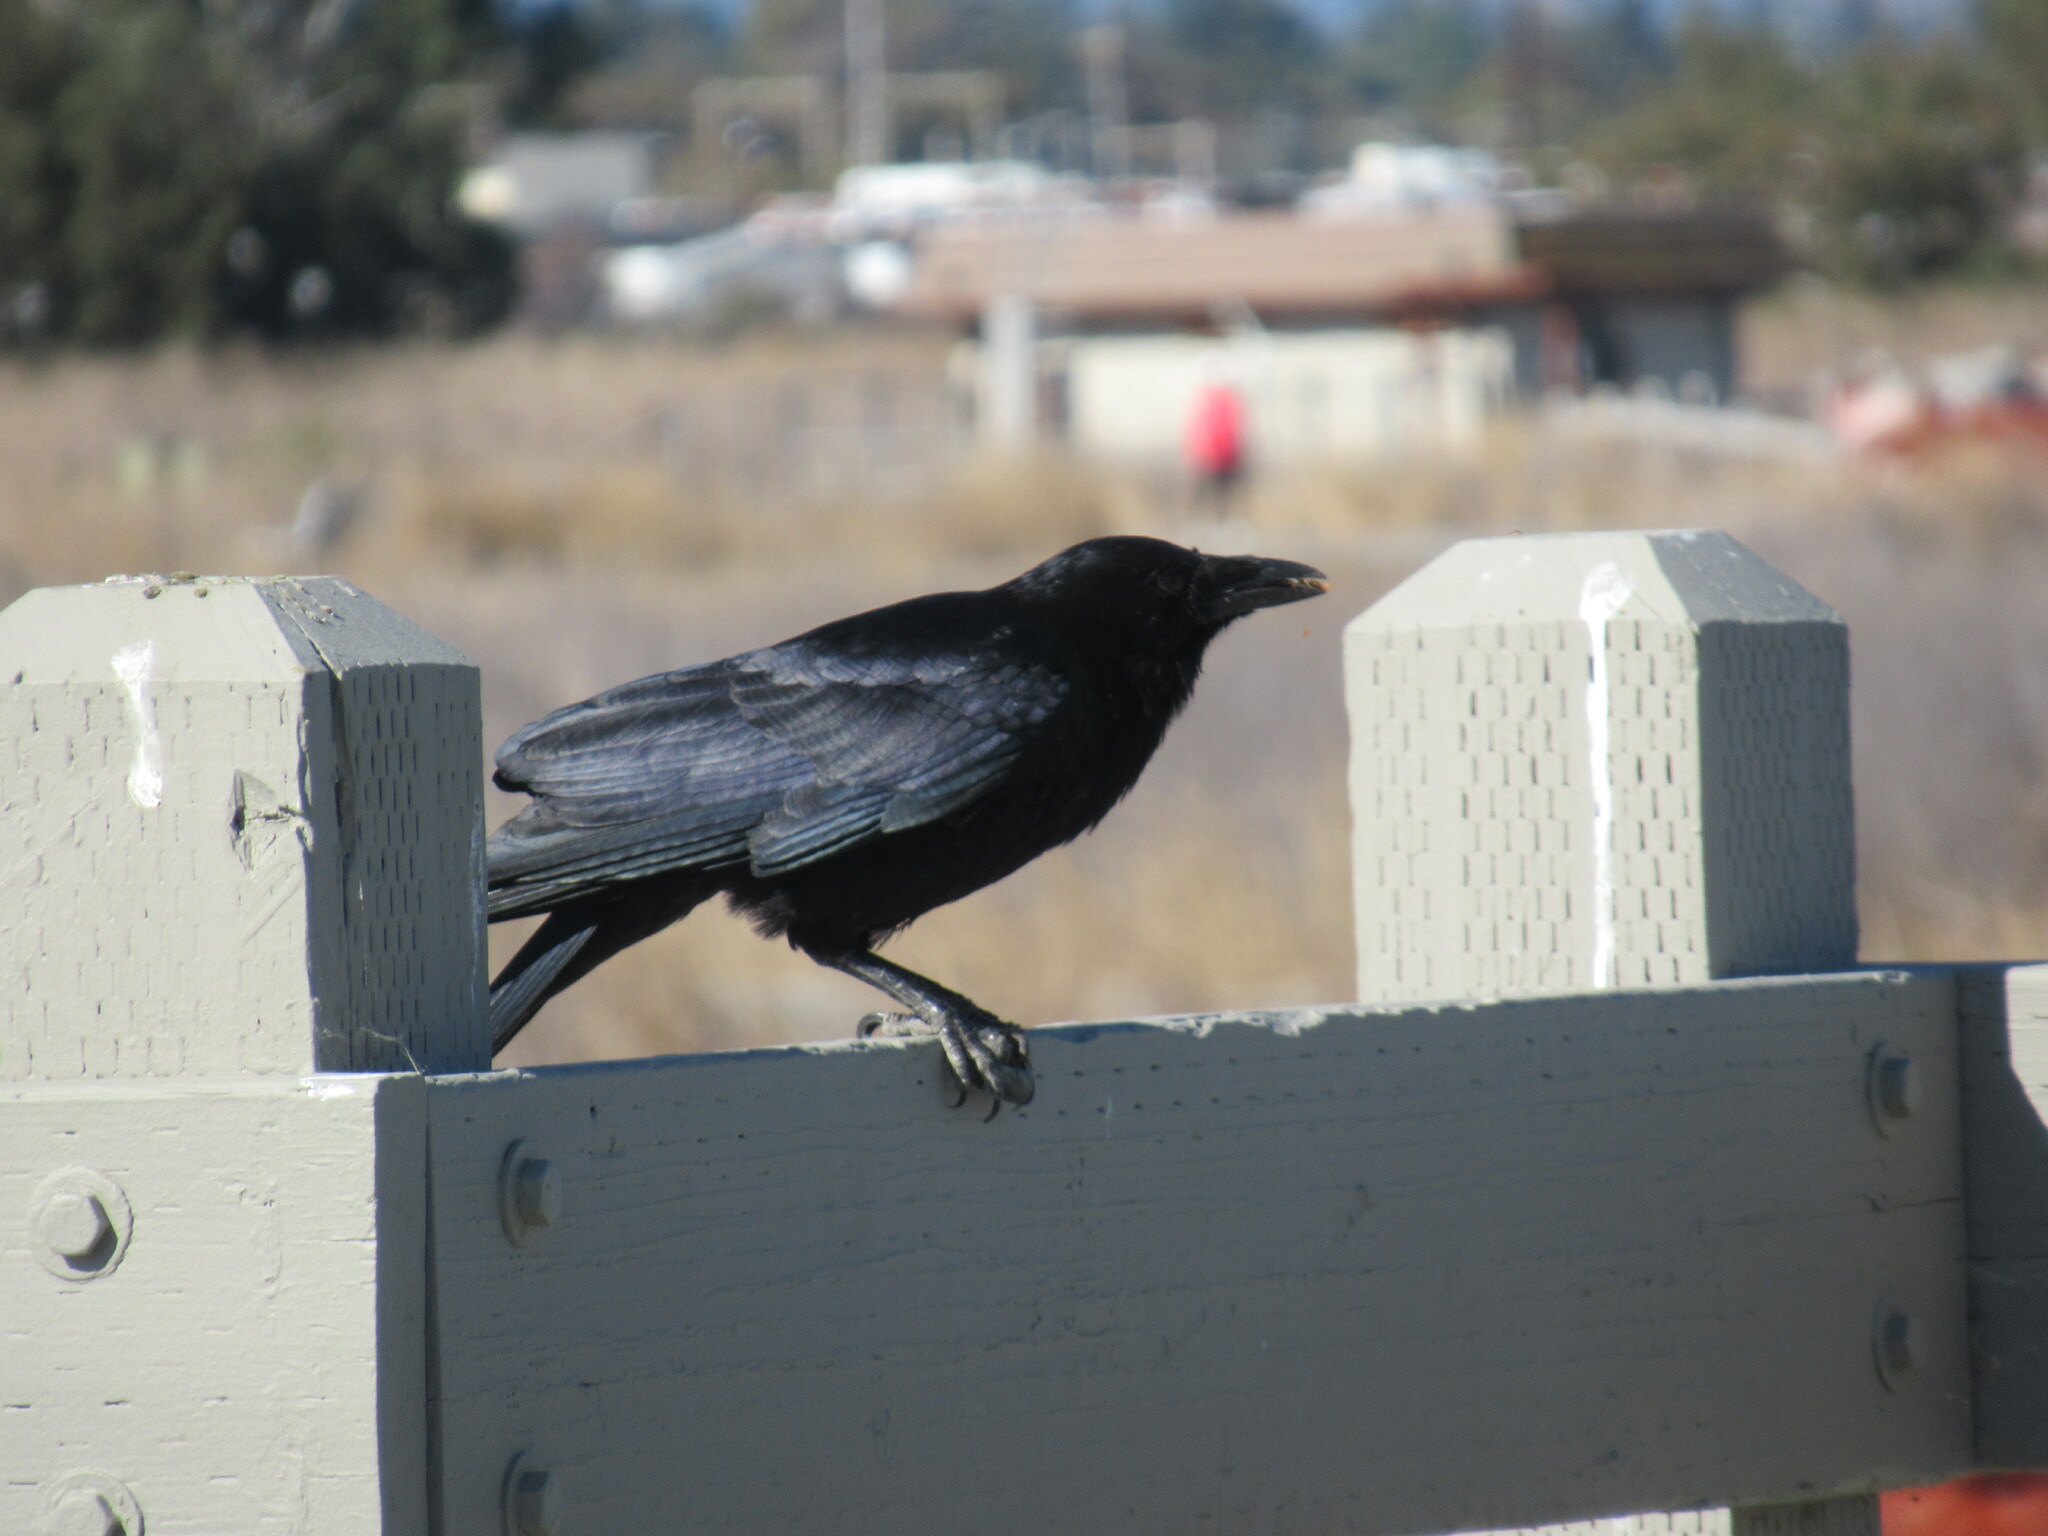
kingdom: Animalia
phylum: Chordata
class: Aves
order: Passeriformes
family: Corvidae
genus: Corvus
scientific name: Corvus brachyrhynchos
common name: American crow
